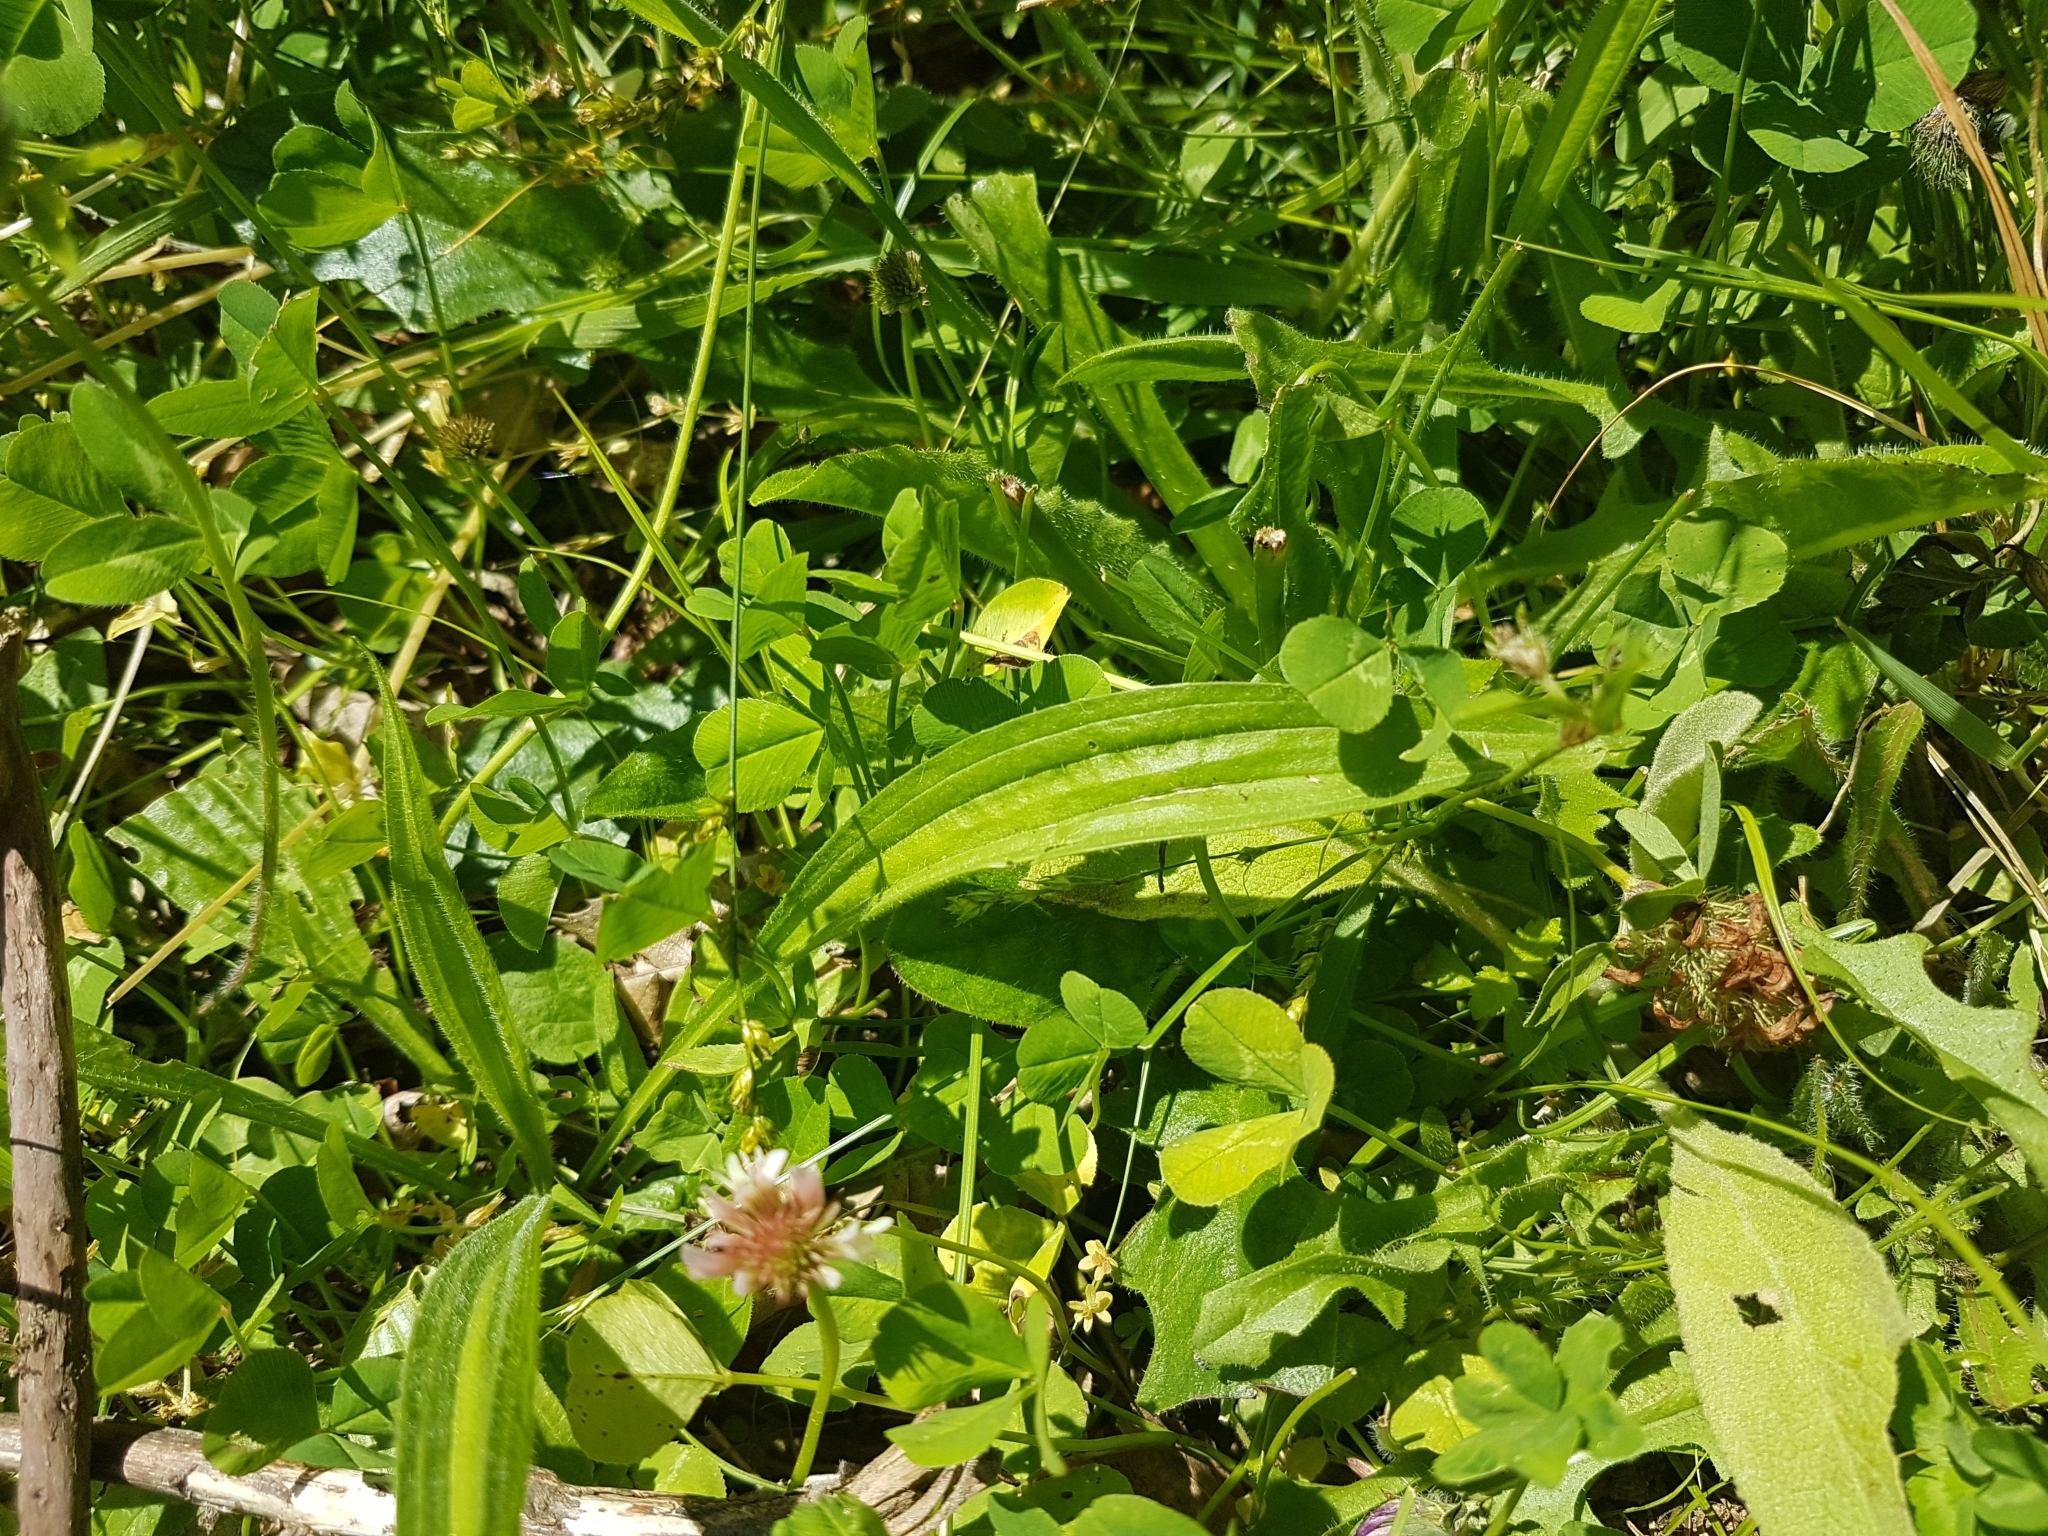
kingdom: Plantae
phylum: Tracheophyta
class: Magnoliopsida
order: Lamiales
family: Plantaginaceae
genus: Plantago
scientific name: Plantago lanceolata
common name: Ribwort plantain
